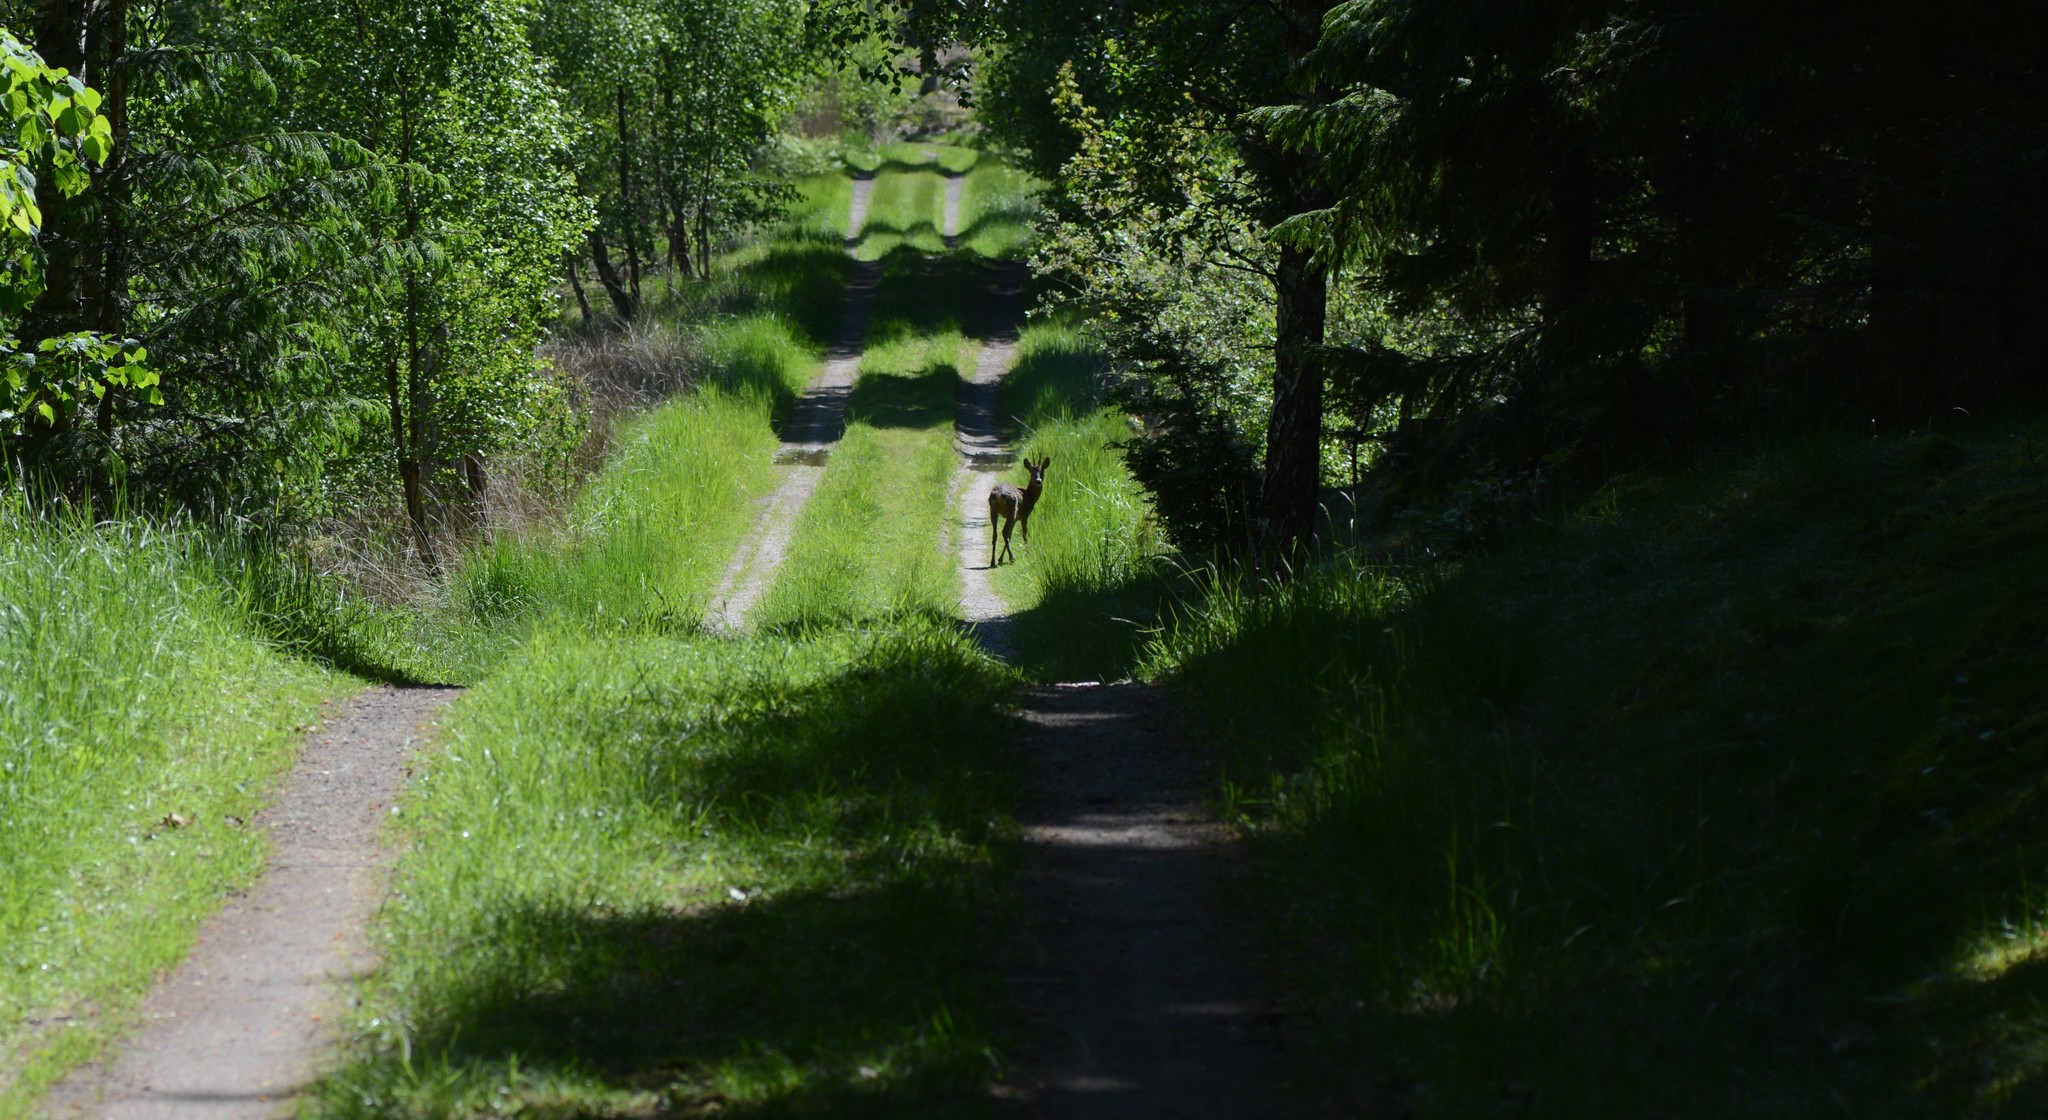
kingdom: Animalia
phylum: Chordata
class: Mammalia
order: Artiodactyla
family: Cervidae
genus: Capreolus
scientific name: Capreolus capreolus
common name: Western roe deer
